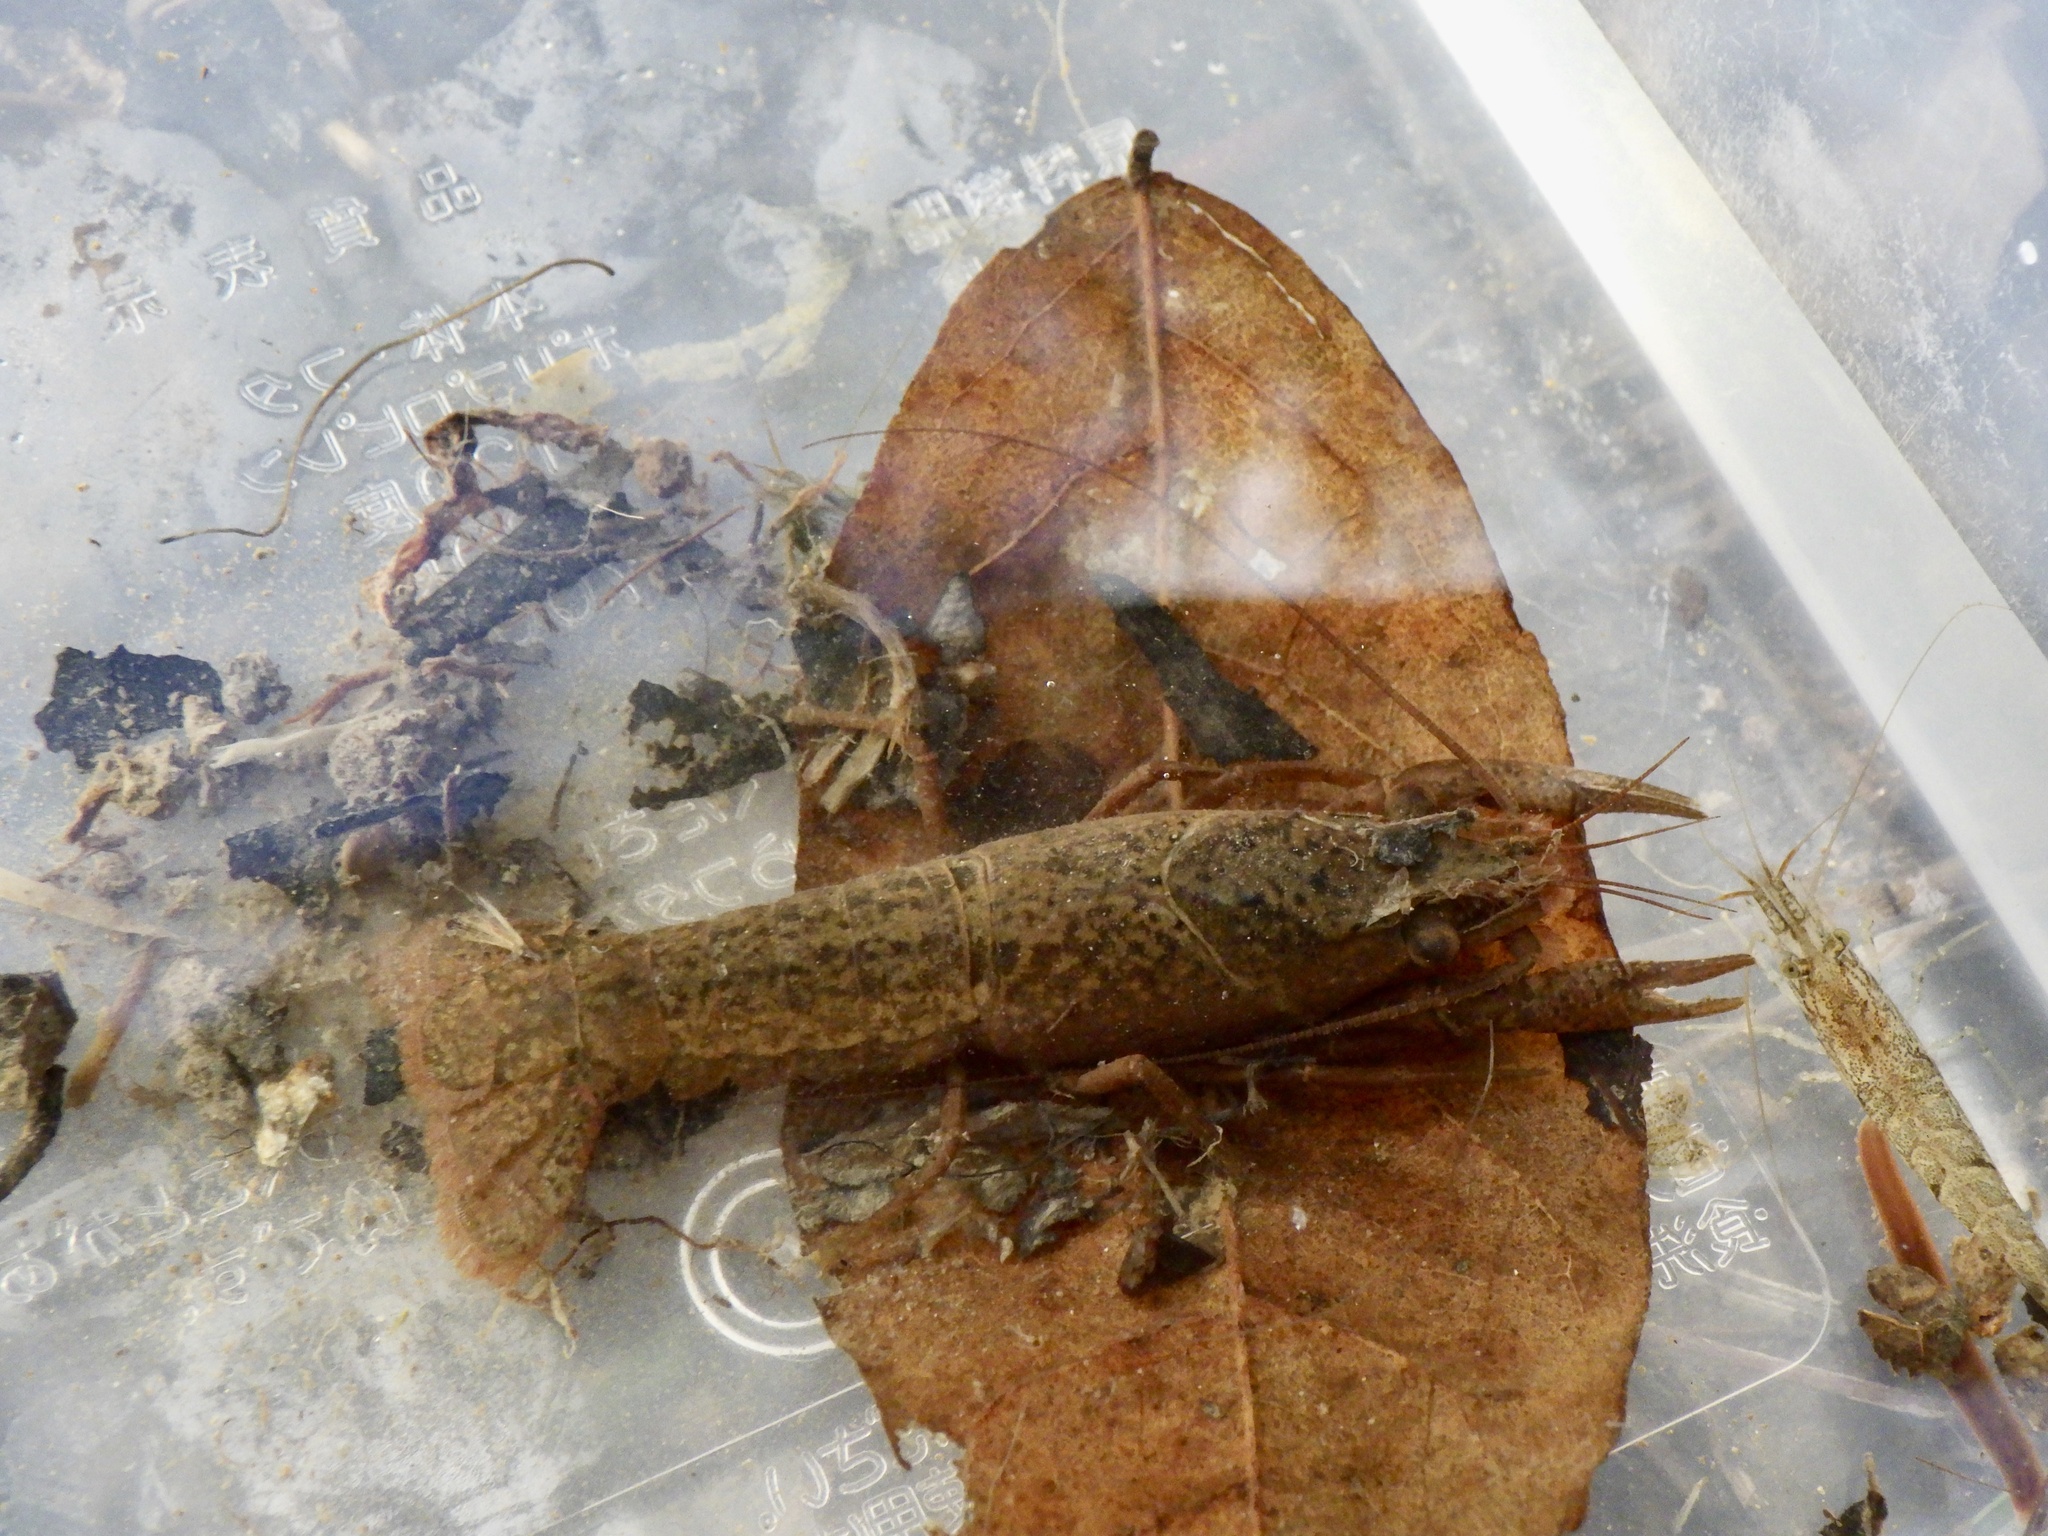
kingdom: Animalia
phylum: Arthropoda
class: Malacostraca
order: Decapoda
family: Cambaridae
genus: Procambarus
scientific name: Procambarus clarkii
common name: Red swamp crayfish
